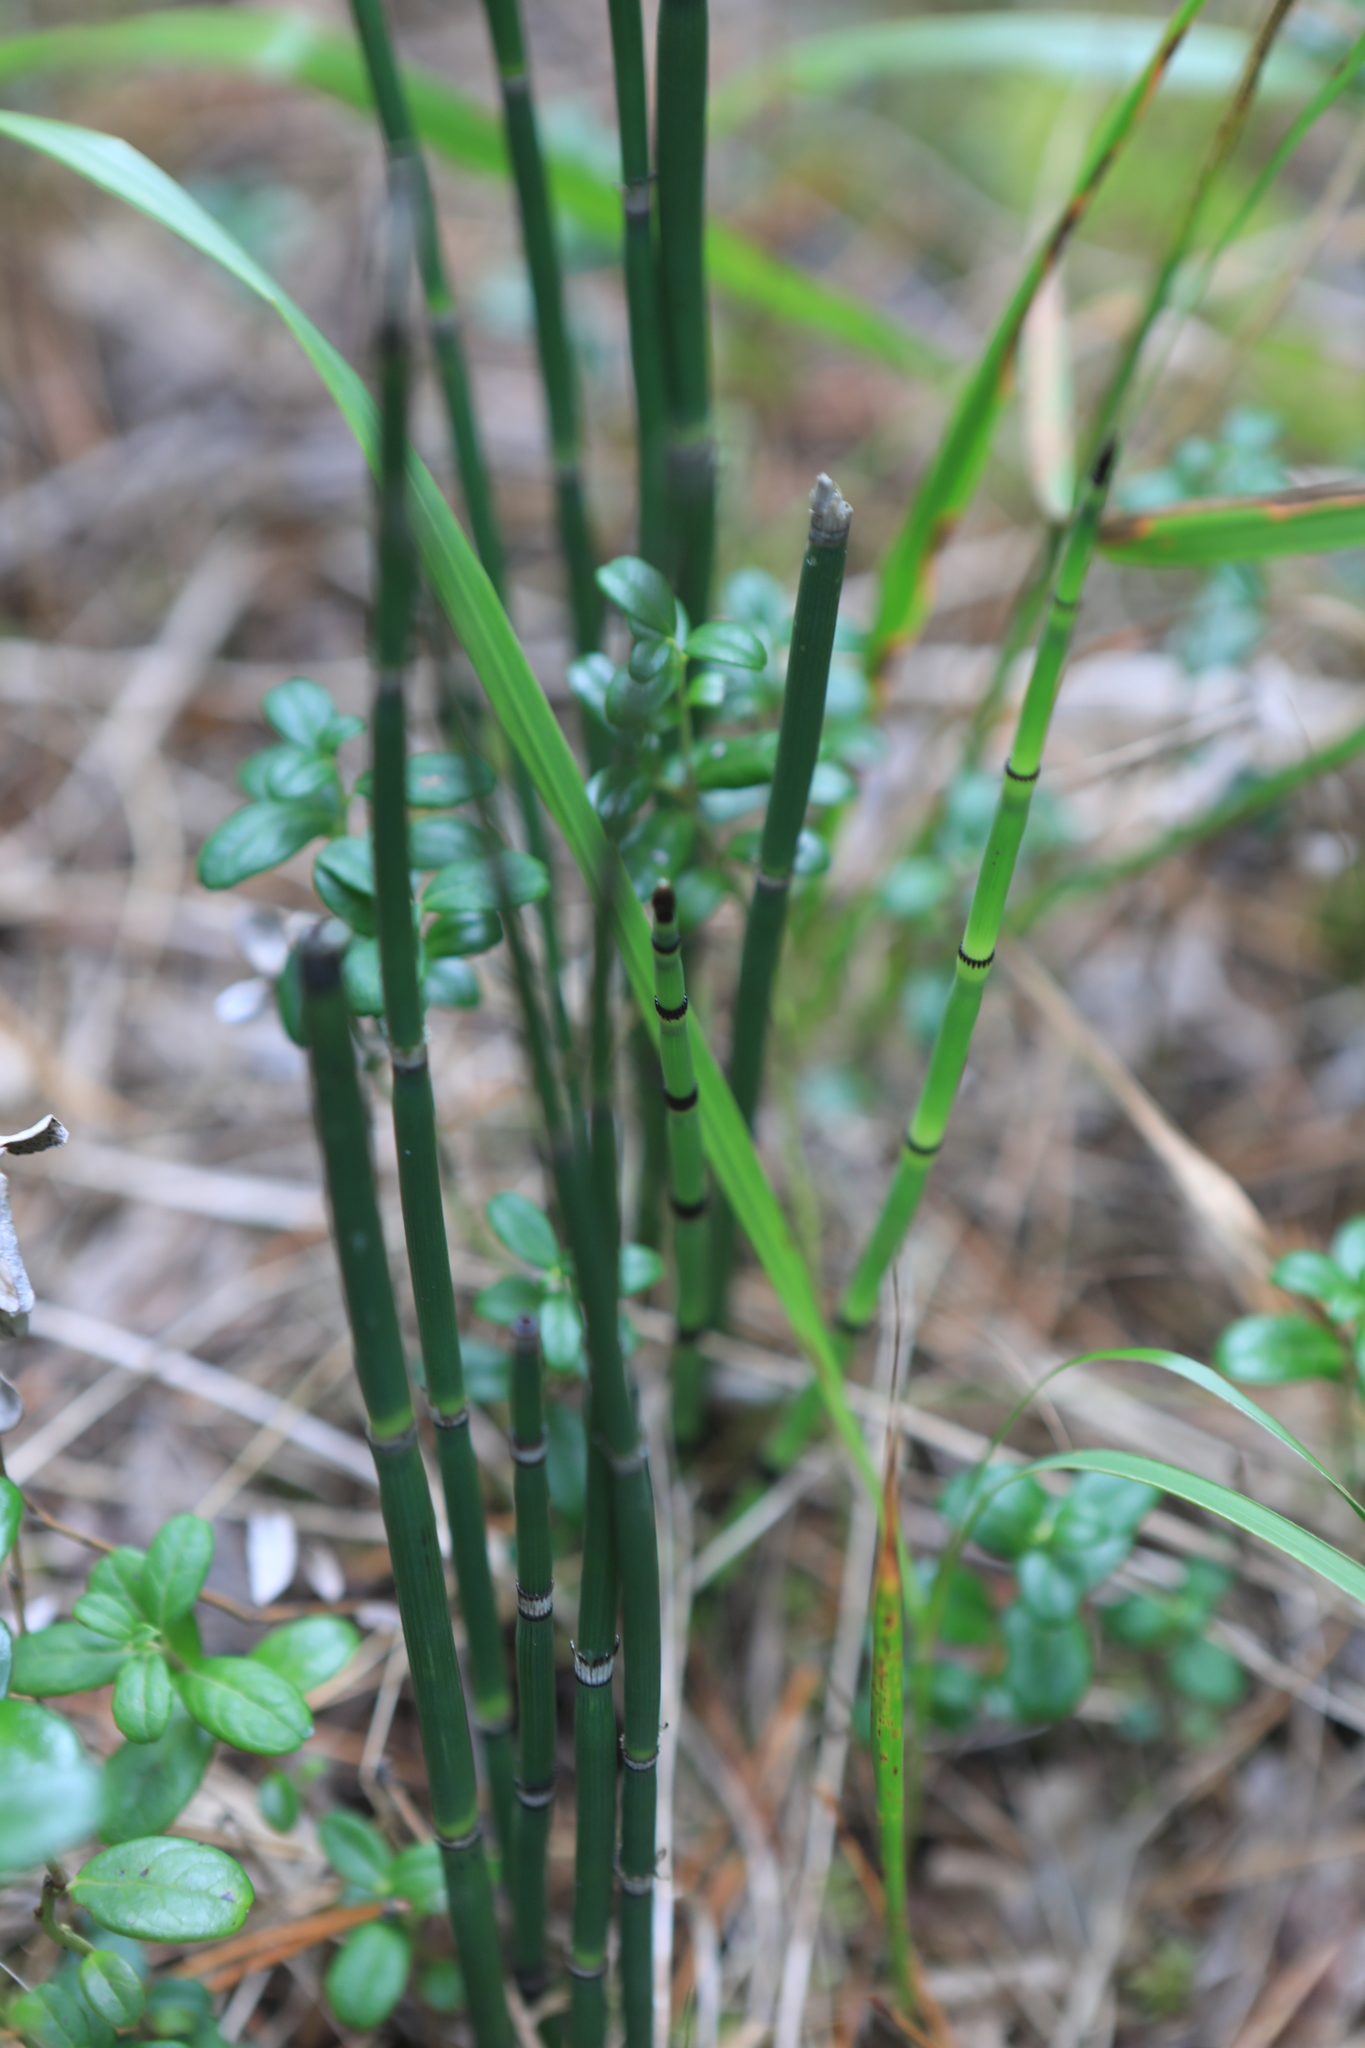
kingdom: Plantae
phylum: Tracheophyta
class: Polypodiopsida
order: Equisetales
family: Equisetaceae
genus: Equisetum
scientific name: Equisetum hyemale
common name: Rough horsetail
